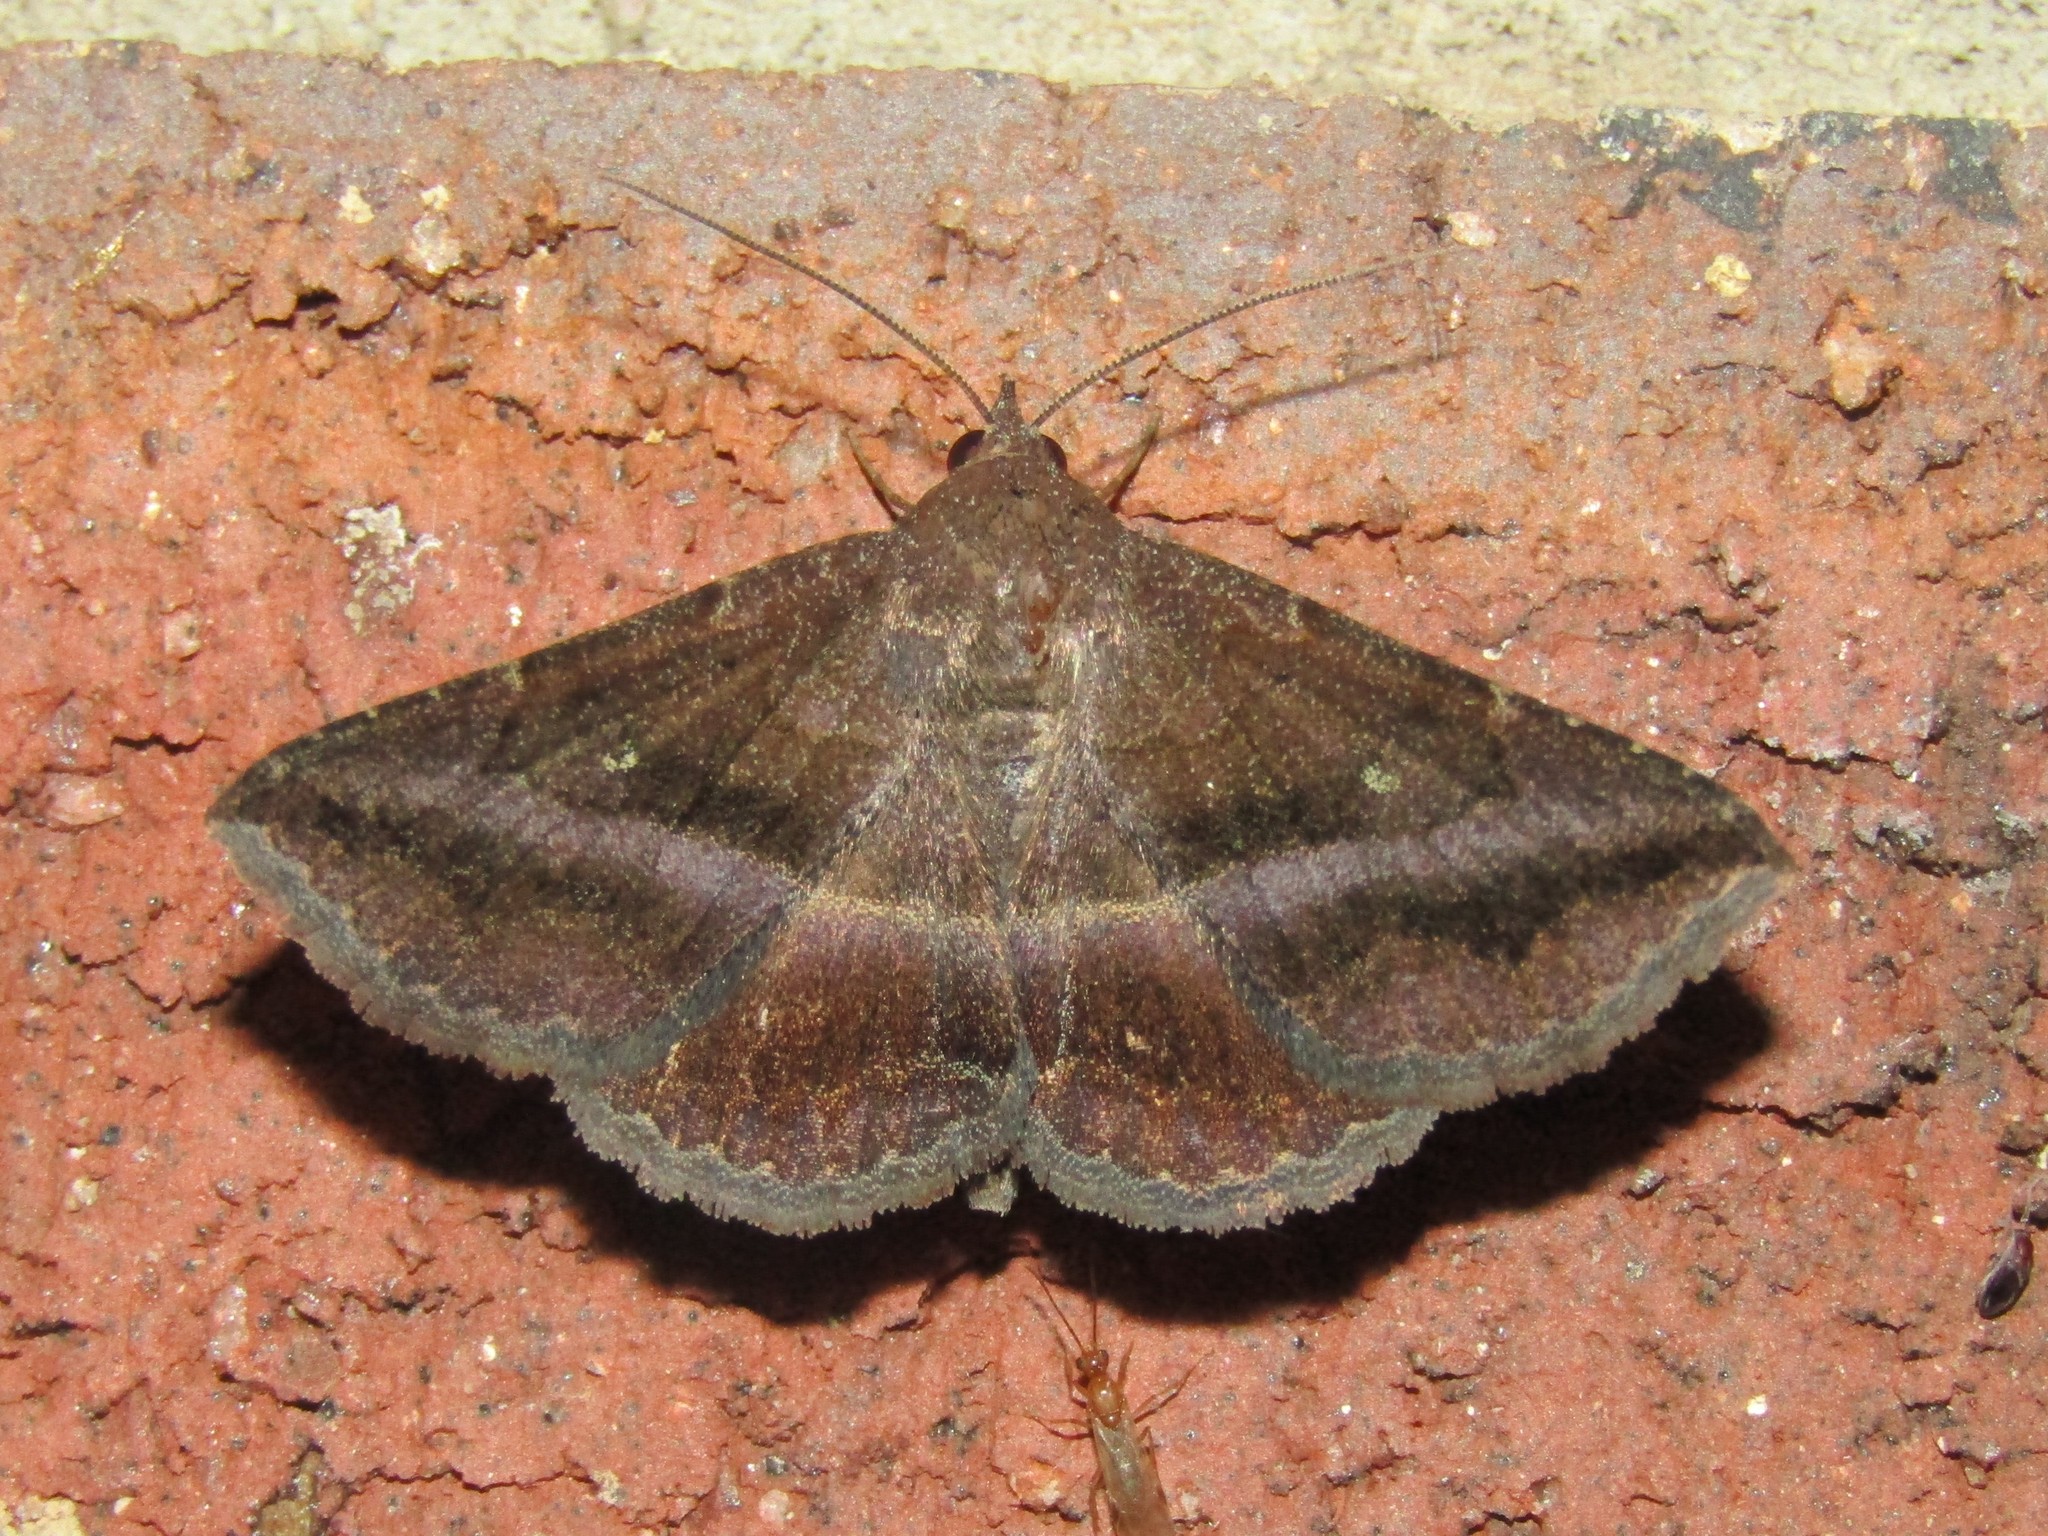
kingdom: Animalia
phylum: Arthropoda
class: Insecta
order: Lepidoptera
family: Erebidae
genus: Lesmone
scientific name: Lesmone detrahens
